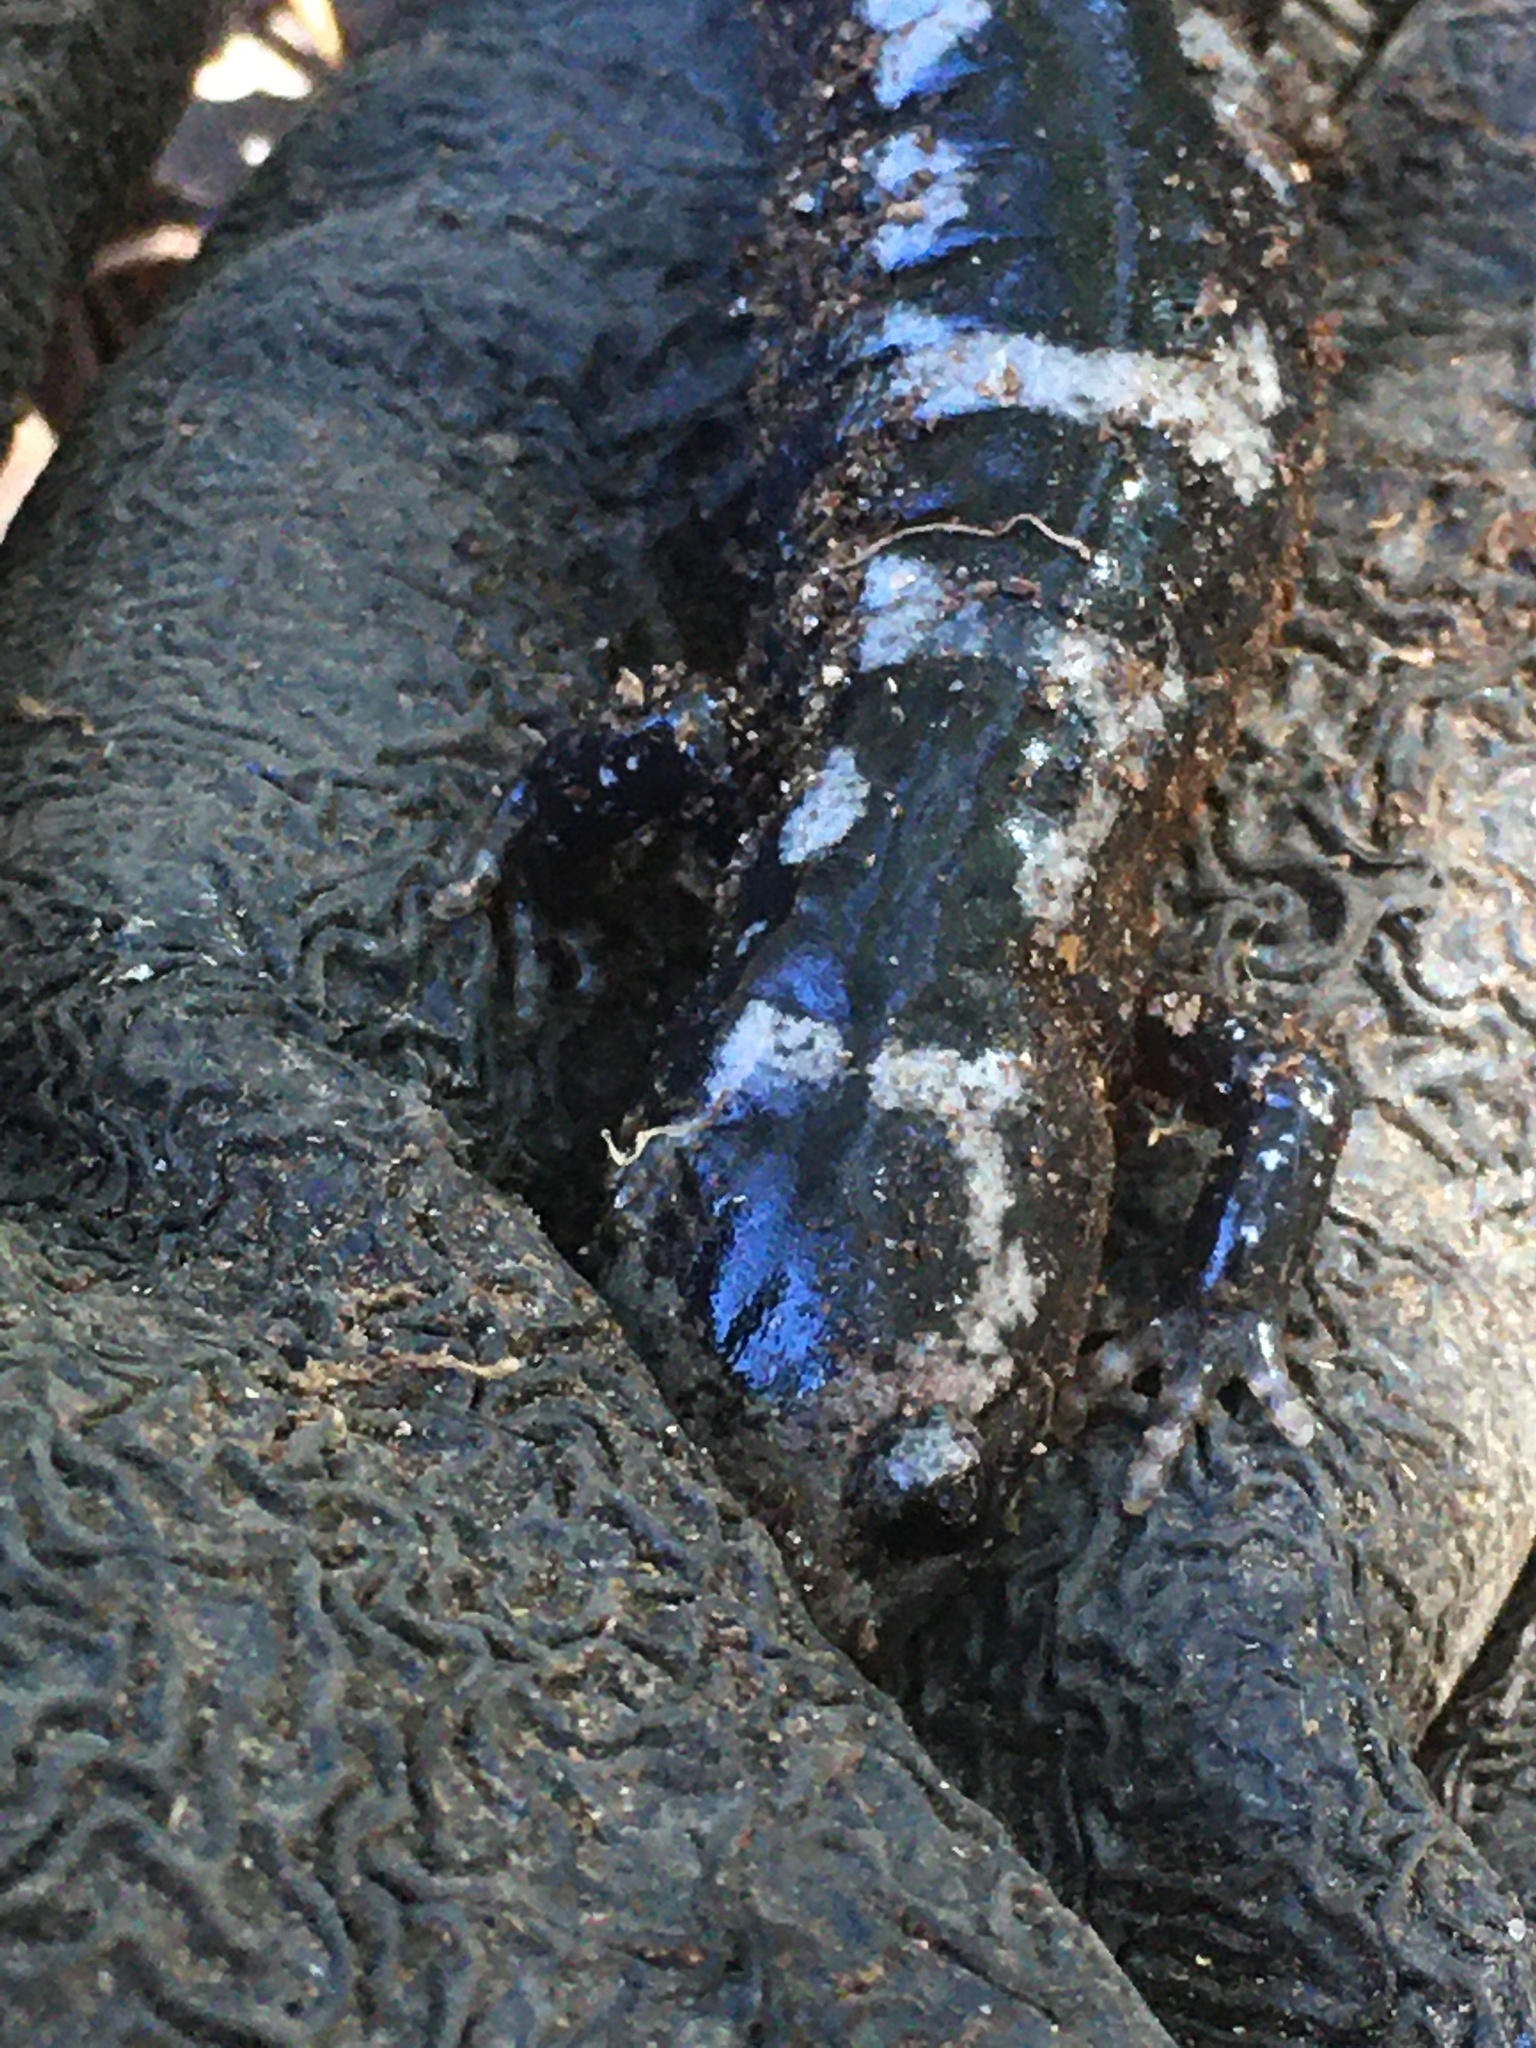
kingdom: Animalia
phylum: Chordata
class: Amphibia
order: Caudata
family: Ambystomatidae
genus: Ambystoma
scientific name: Ambystoma opacum
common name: Marbled salamander
